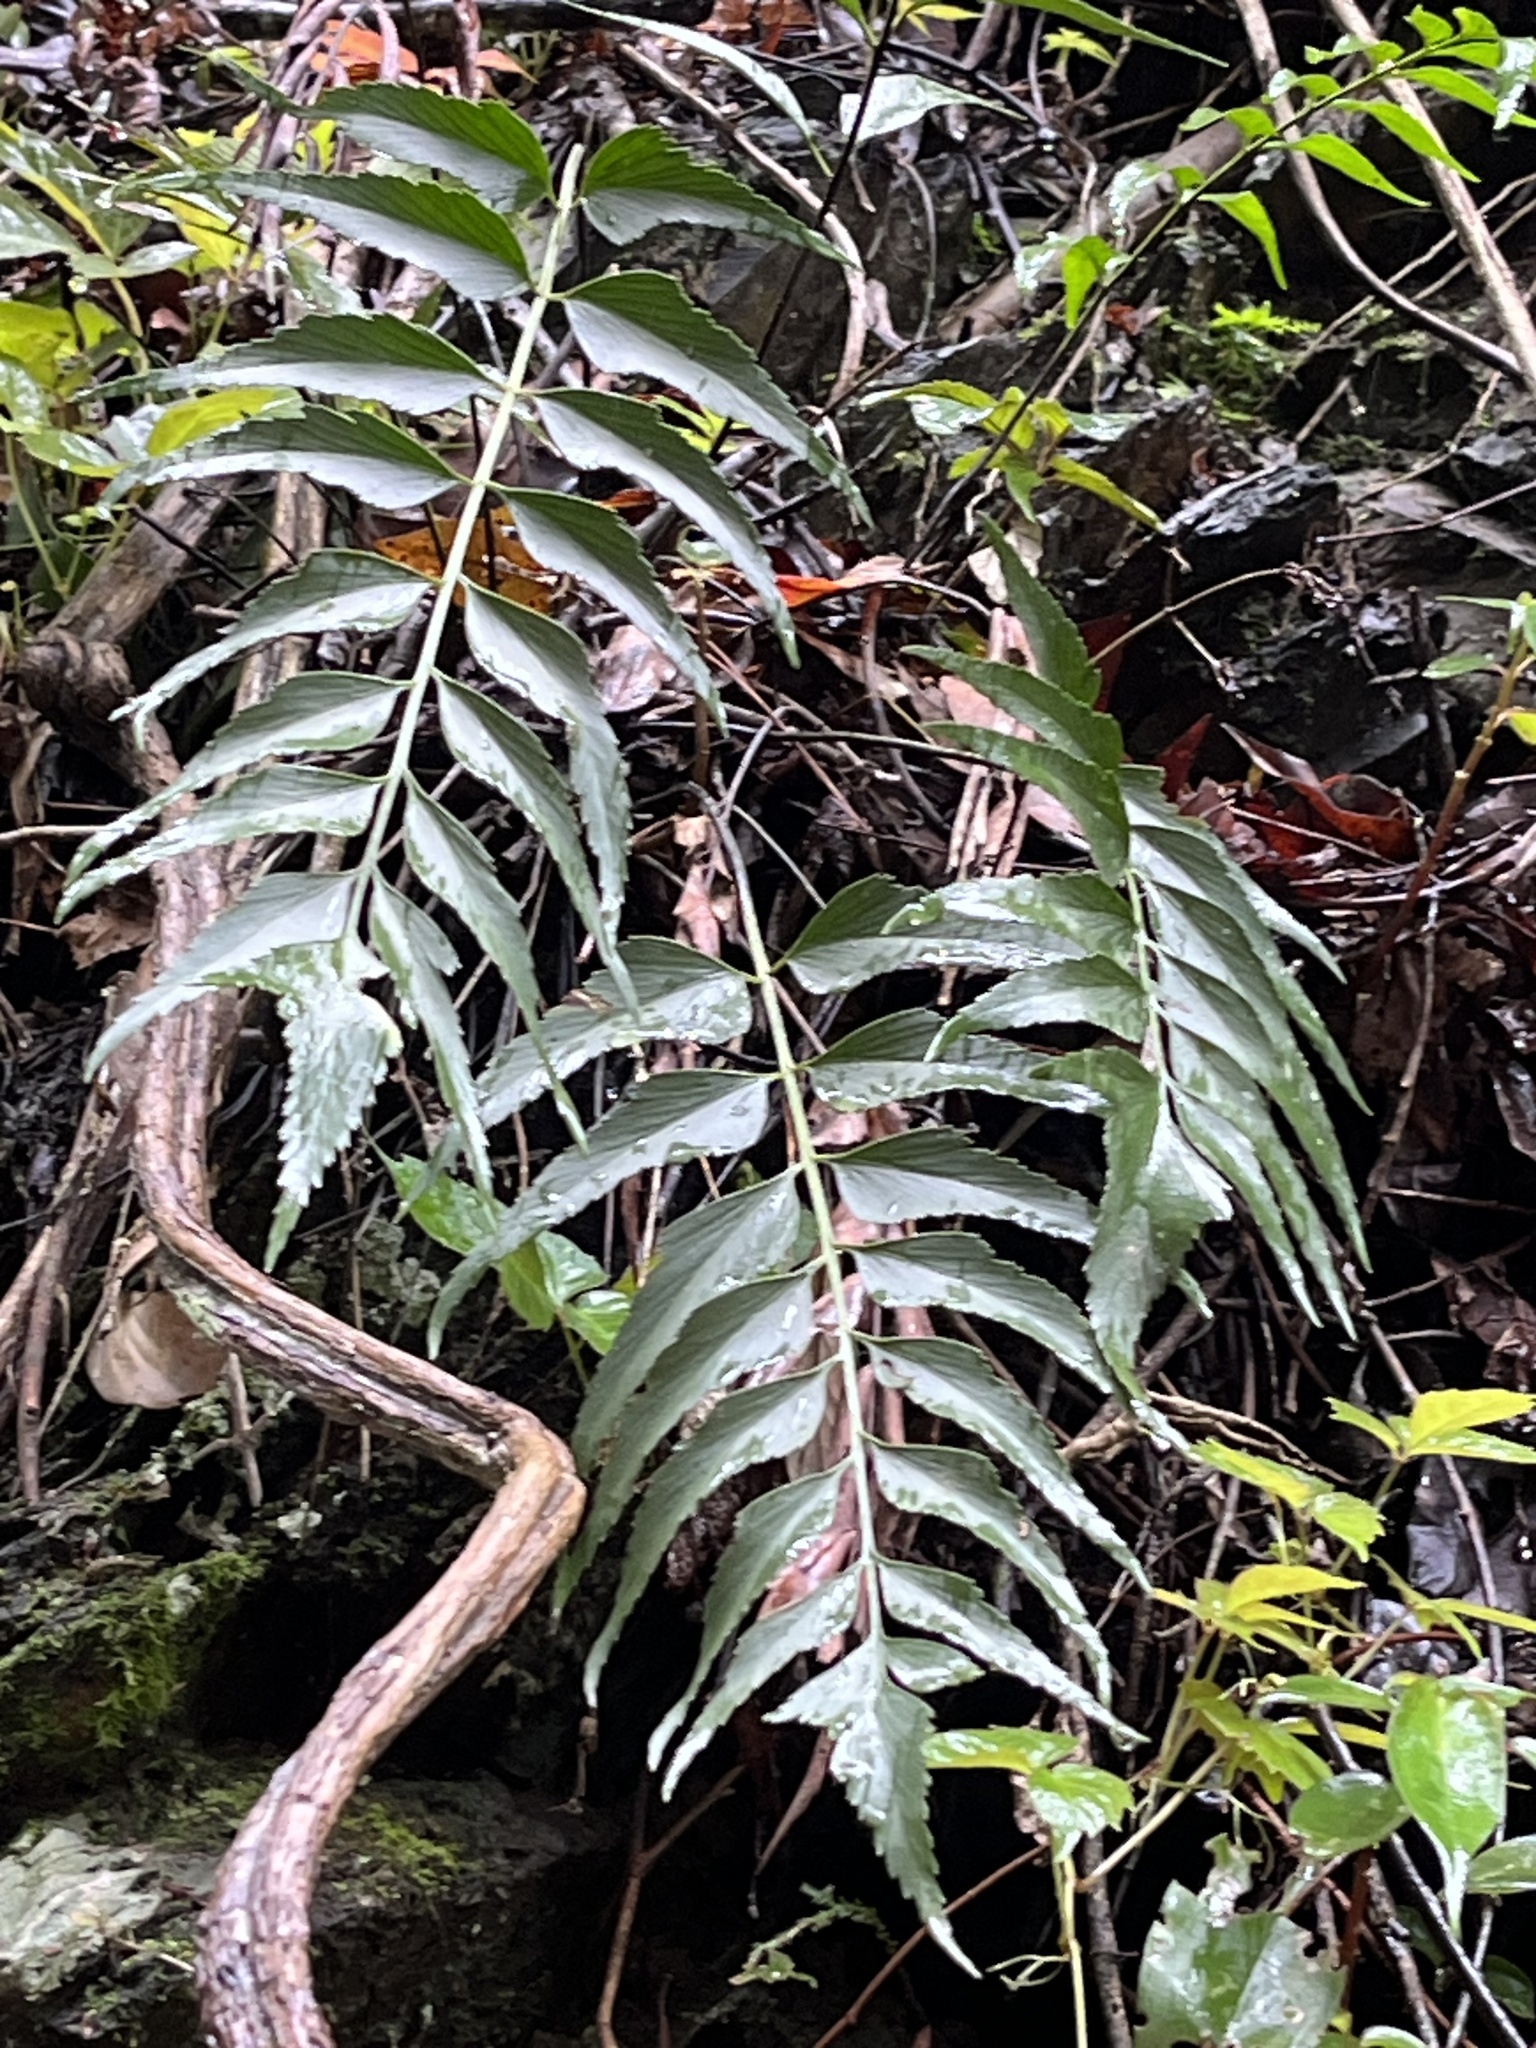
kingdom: Plantae
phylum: Tracheophyta
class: Polypodiopsida
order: Polypodiales
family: Aspleniaceae
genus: Asplenium
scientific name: Asplenium wrightii
